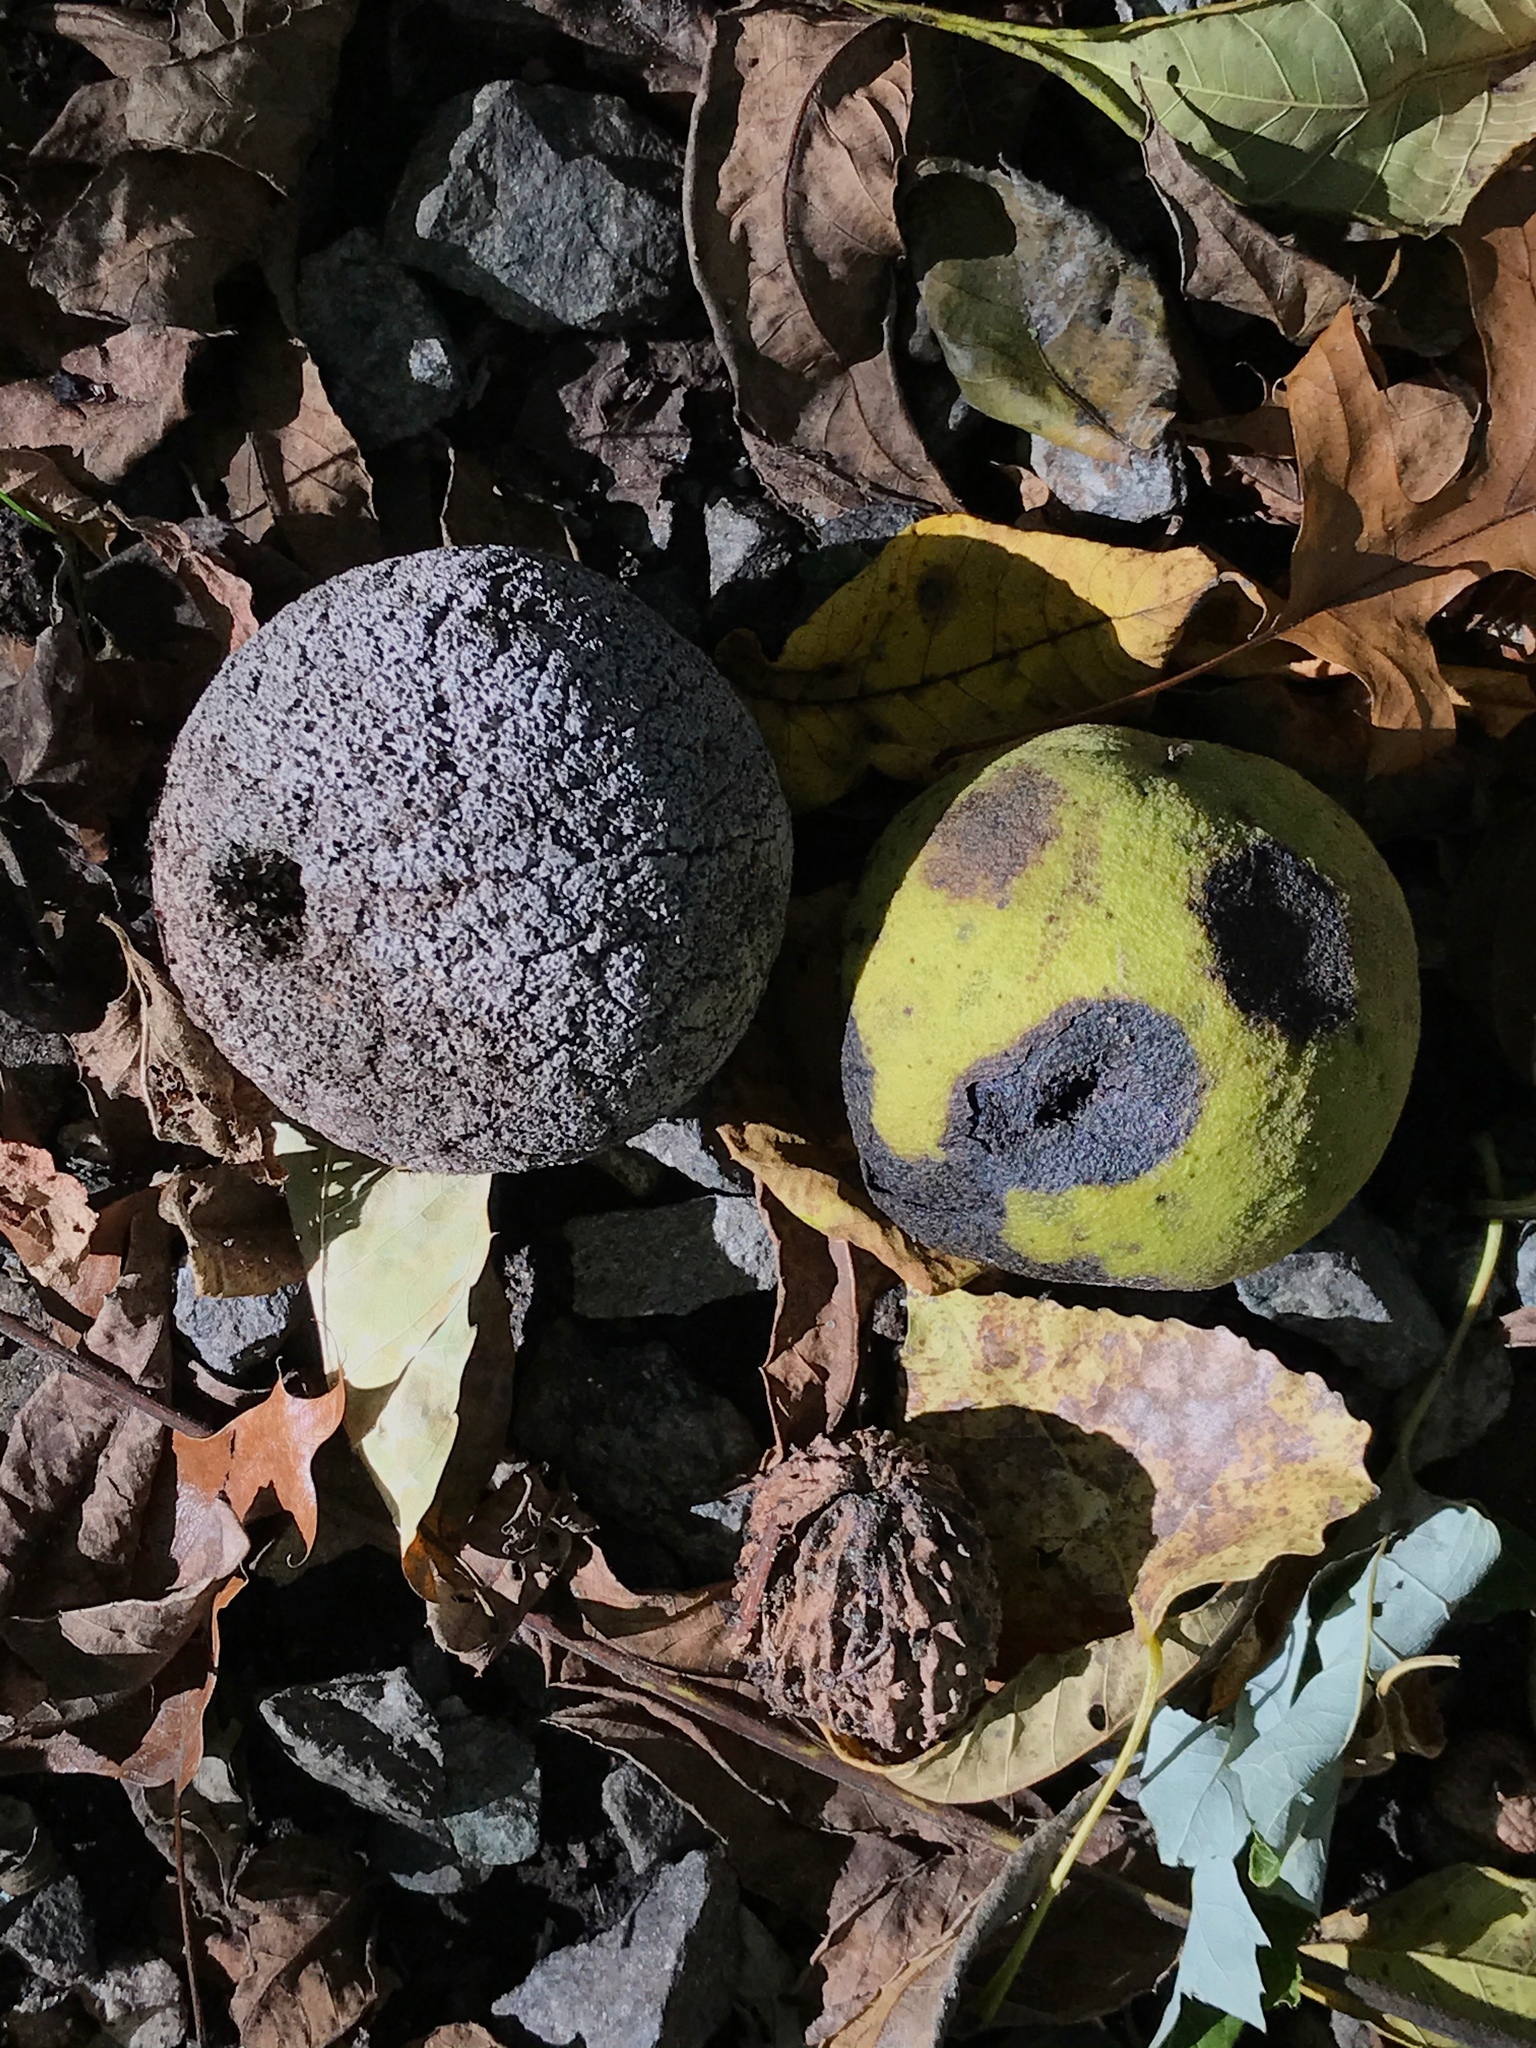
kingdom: Plantae
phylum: Tracheophyta
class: Magnoliopsida
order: Fagales
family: Juglandaceae
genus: Juglans
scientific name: Juglans nigra
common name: Black walnut
